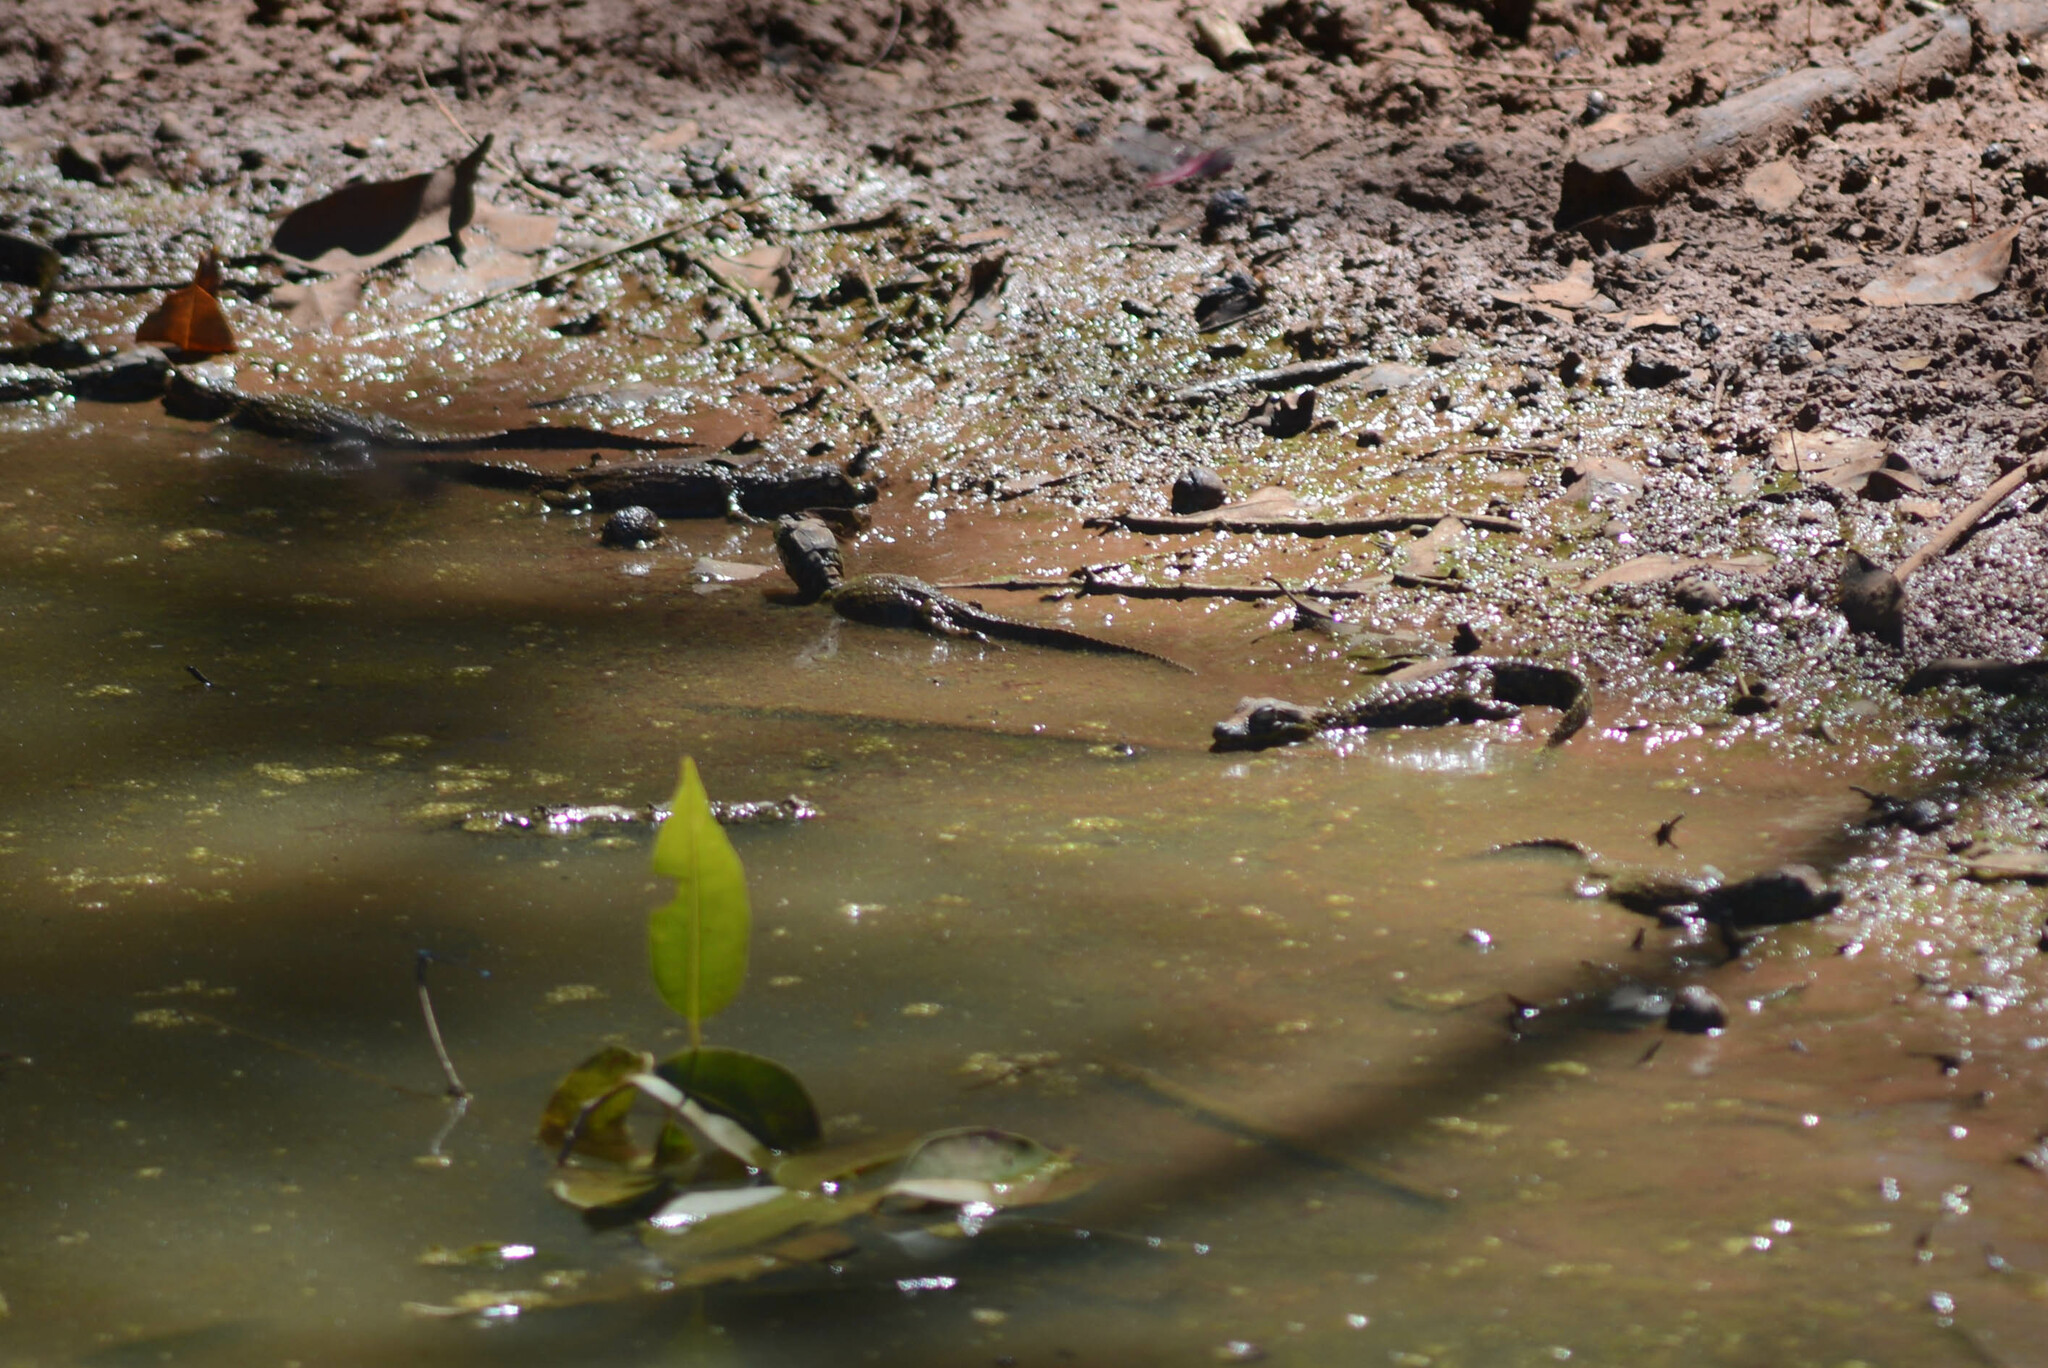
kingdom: Animalia
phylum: Chordata
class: Crocodylia
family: Alligatoridae
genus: Caiman
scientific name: Caiman latirostris
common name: Broad-snouted caiman
